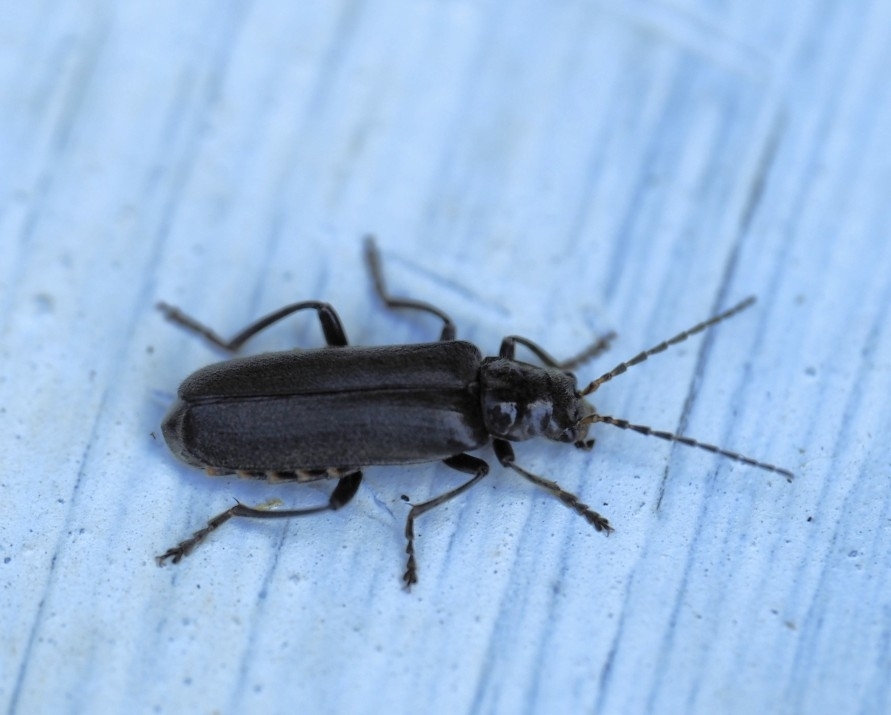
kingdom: Animalia
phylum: Arthropoda
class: Insecta
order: Coleoptera
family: Cantharidae
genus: Cantharis
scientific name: Cantharis tristis
